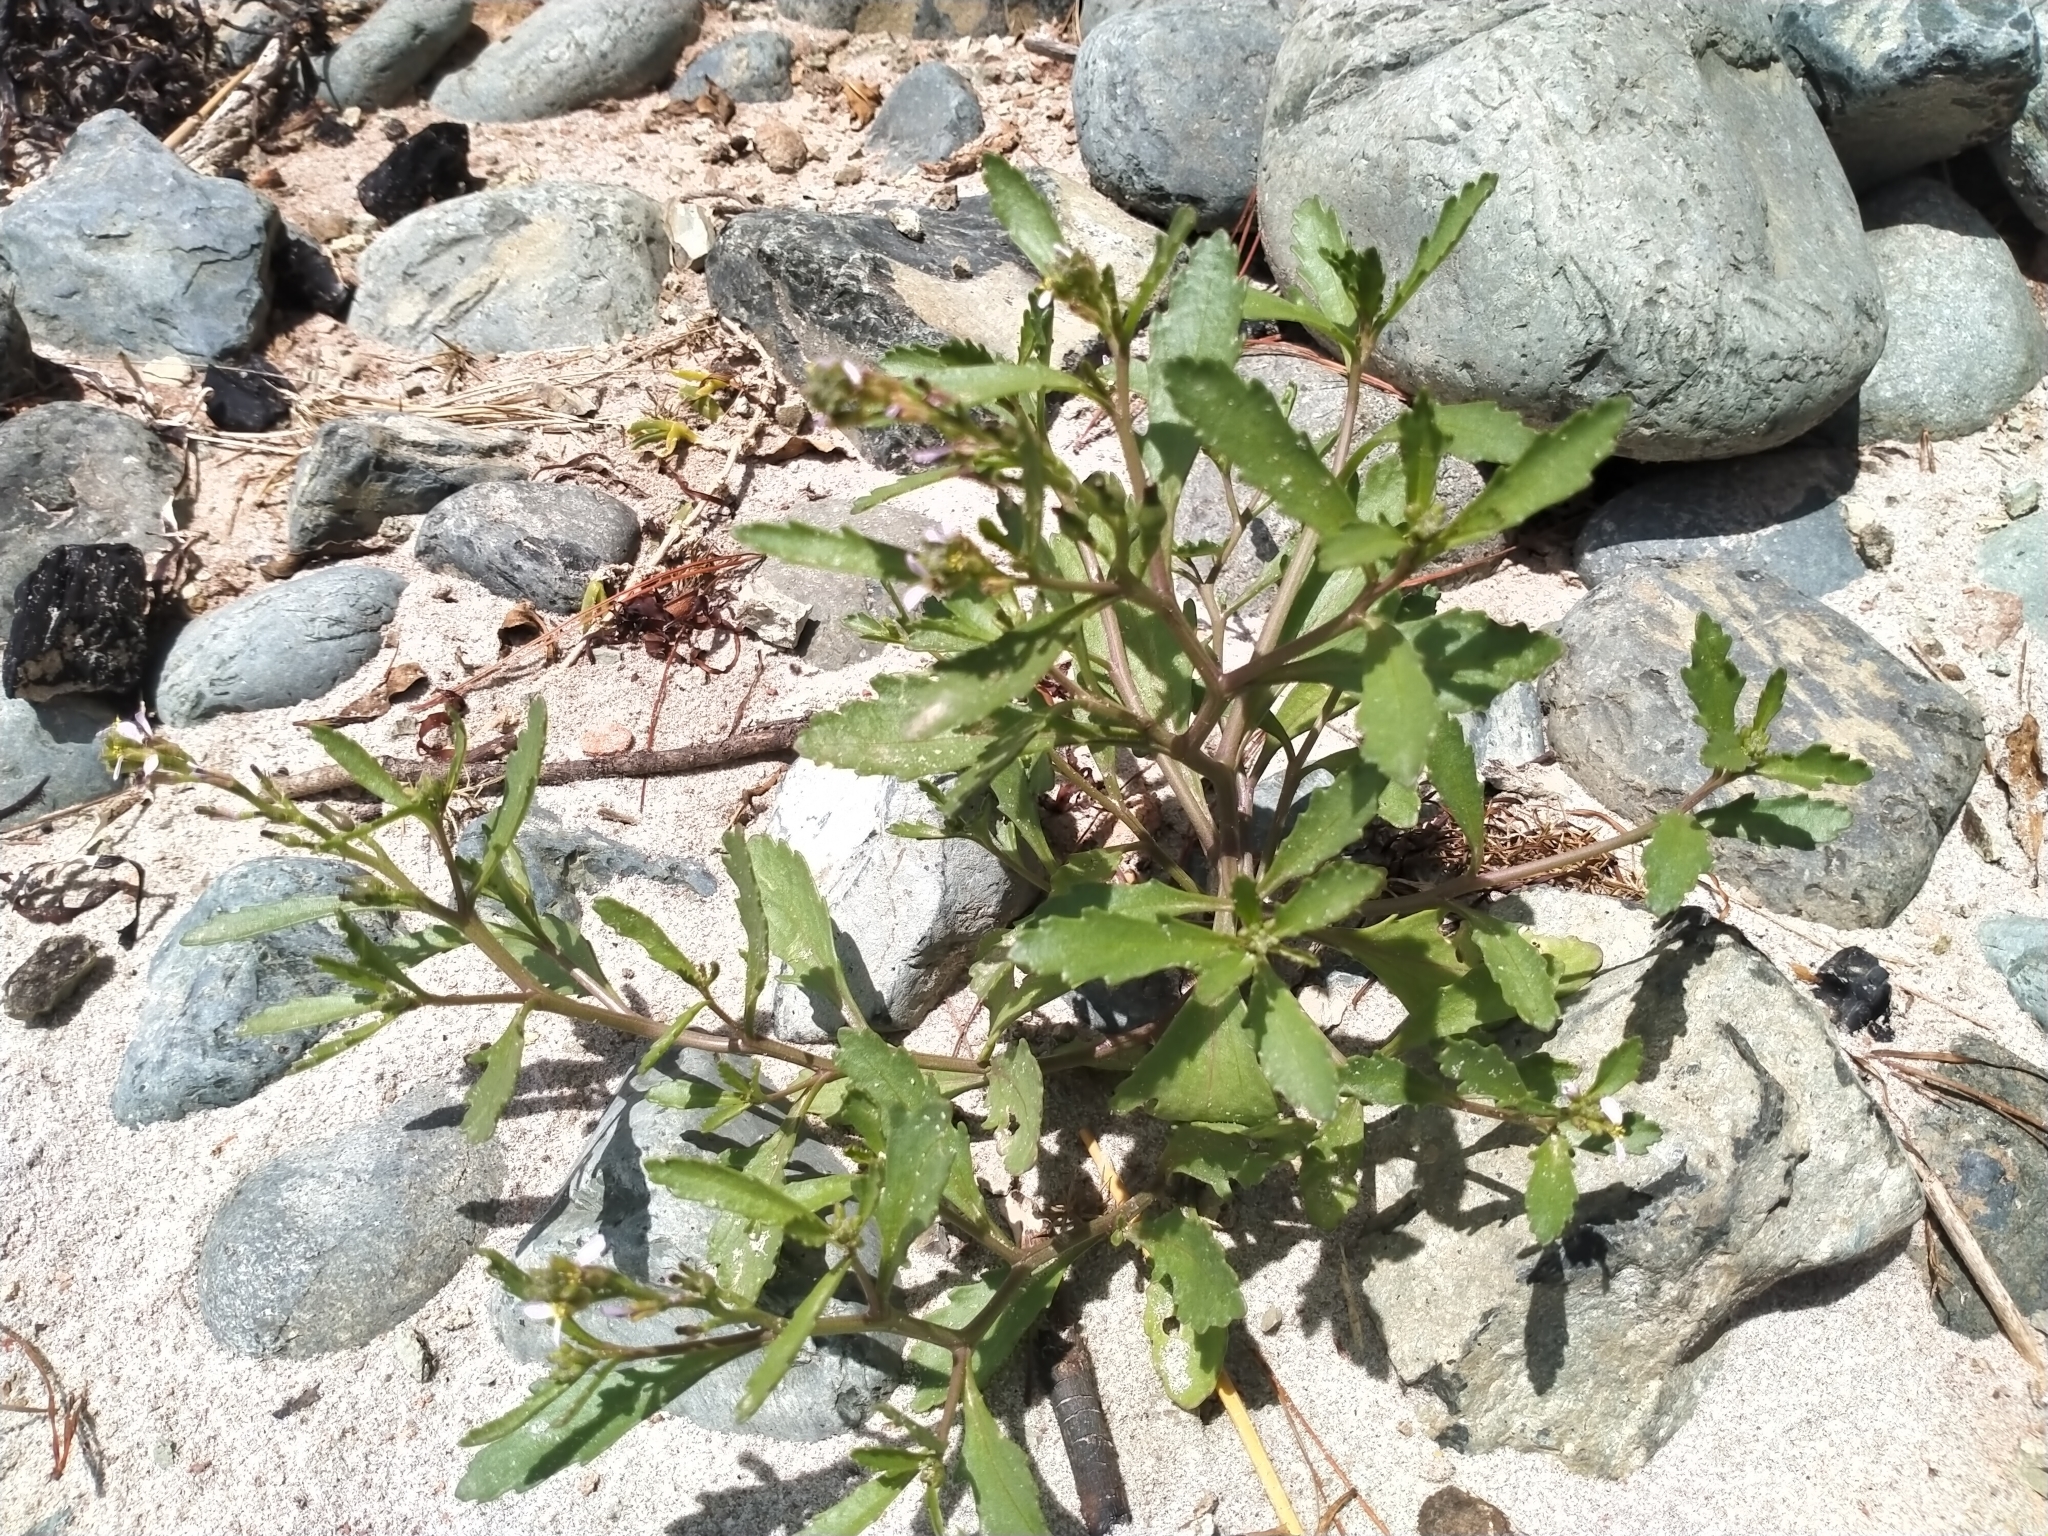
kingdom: Plantae
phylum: Tracheophyta
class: Magnoliopsida
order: Brassicales
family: Brassicaceae
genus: Cakile
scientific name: Cakile edentula
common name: American sea rocket
